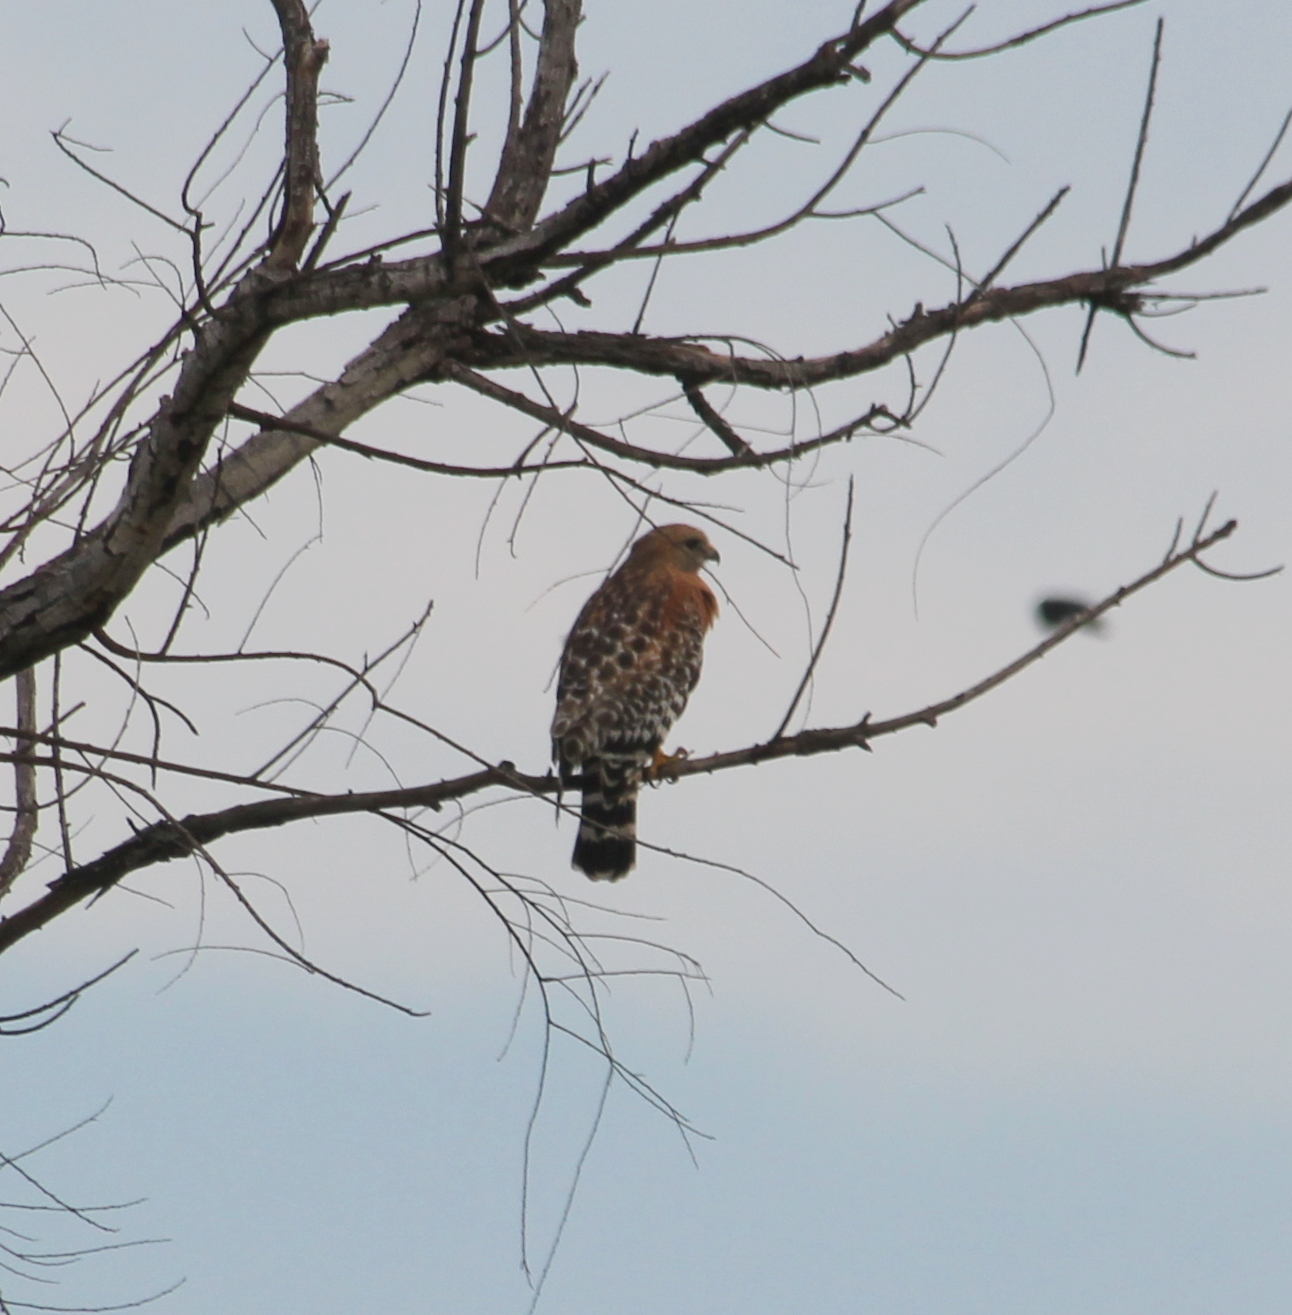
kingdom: Animalia
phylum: Chordata
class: Aves
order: Accipitriformes
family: Accipitridae
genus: Buteo
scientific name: Buteo lineatus
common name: Red-shouldered hawk
